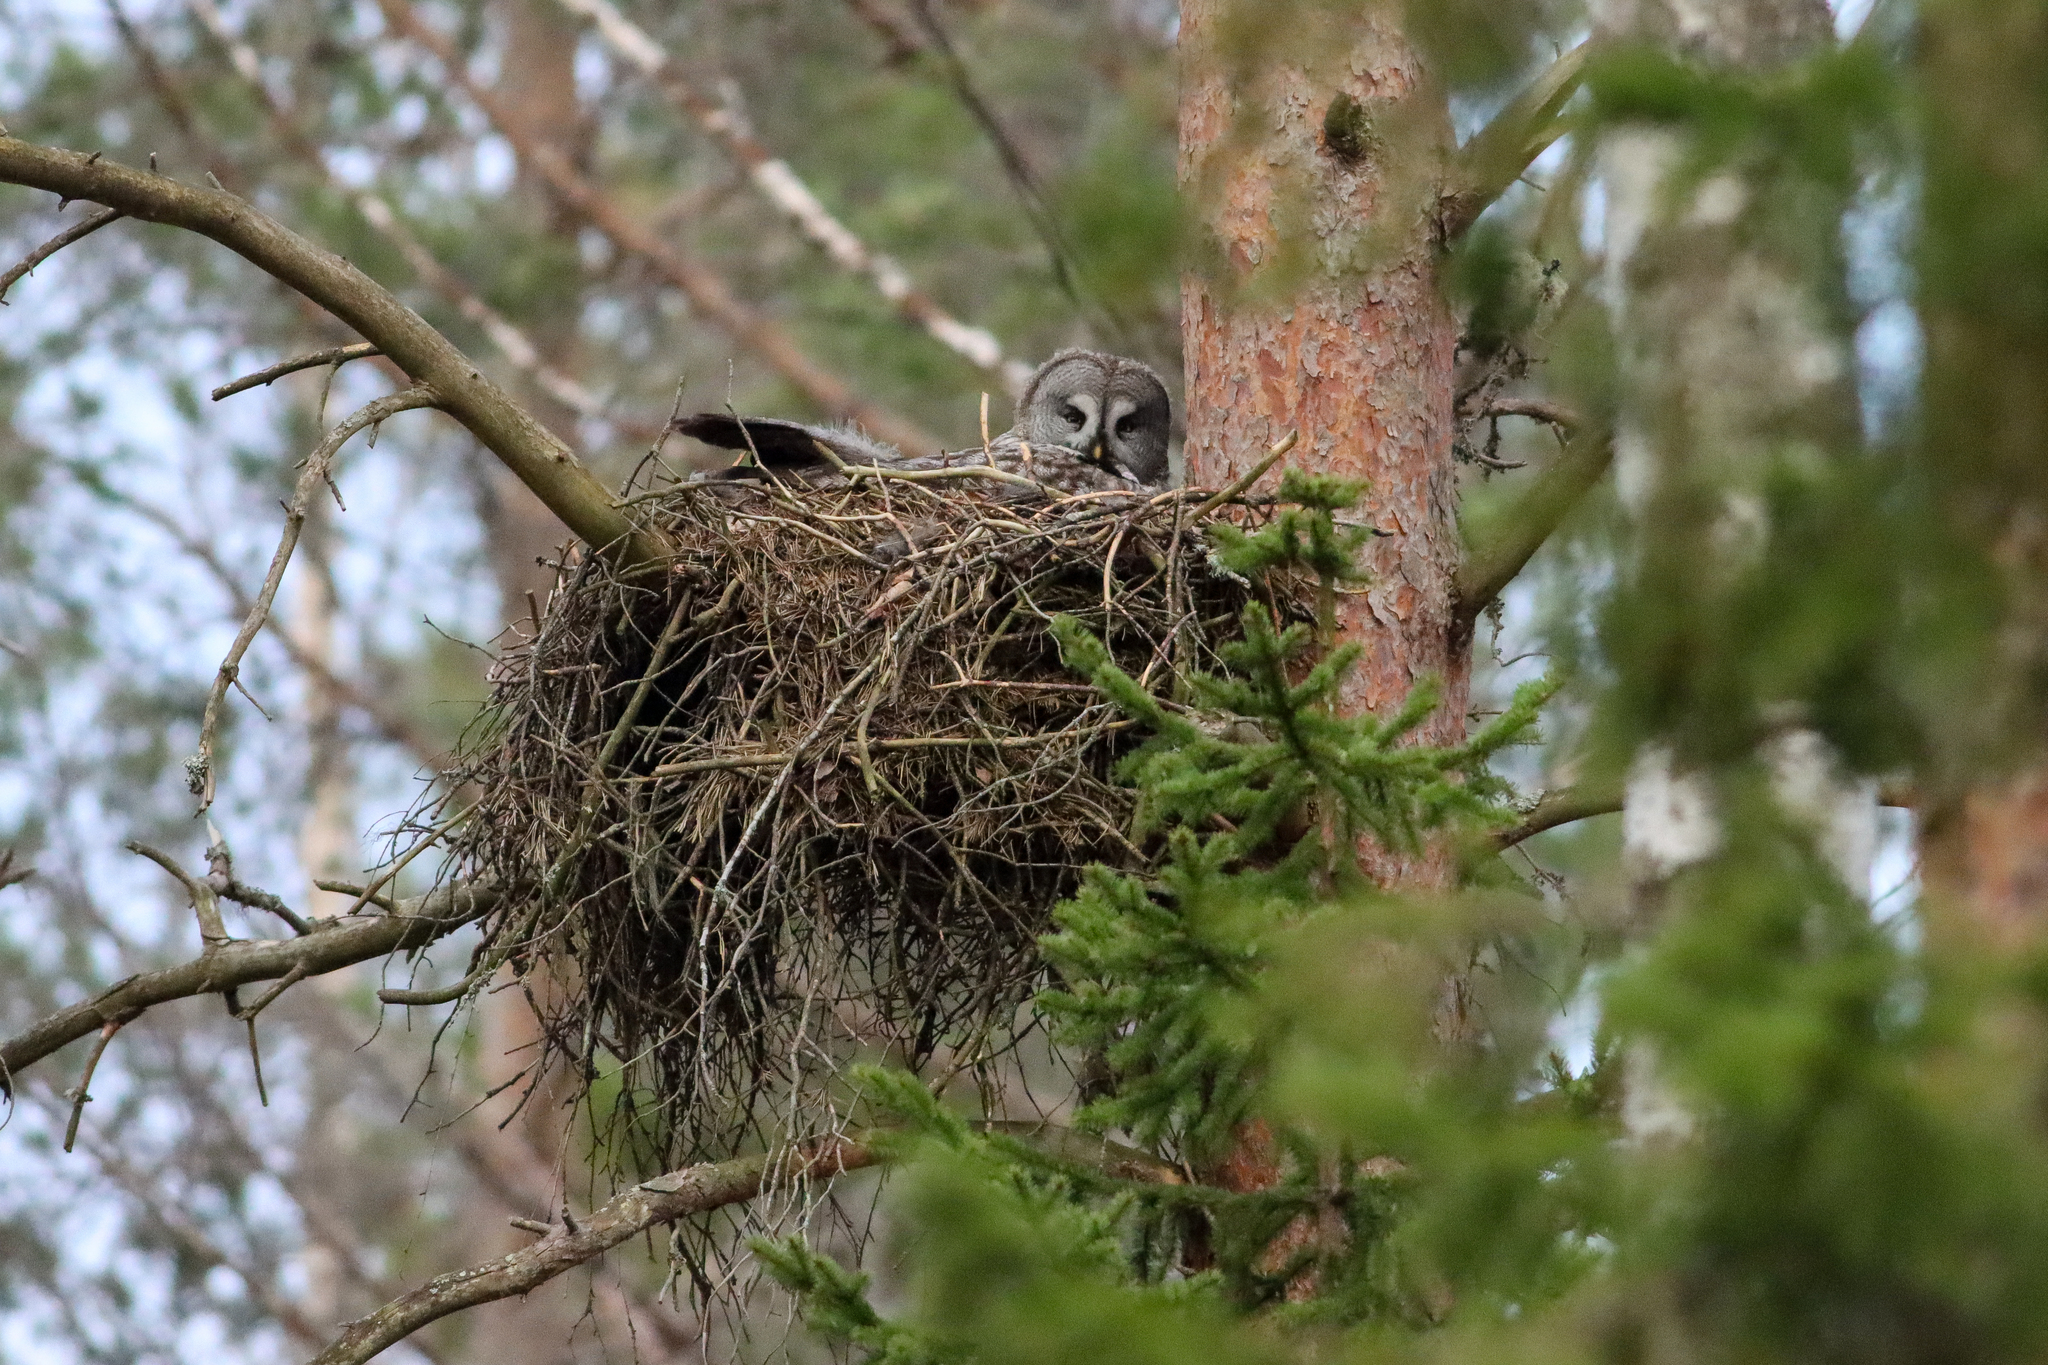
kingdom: Animalia
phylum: Chordata
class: Aves
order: Strigiformes
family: Strigidae
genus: Strix
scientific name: Strix nebulosa
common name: Great grey owl
